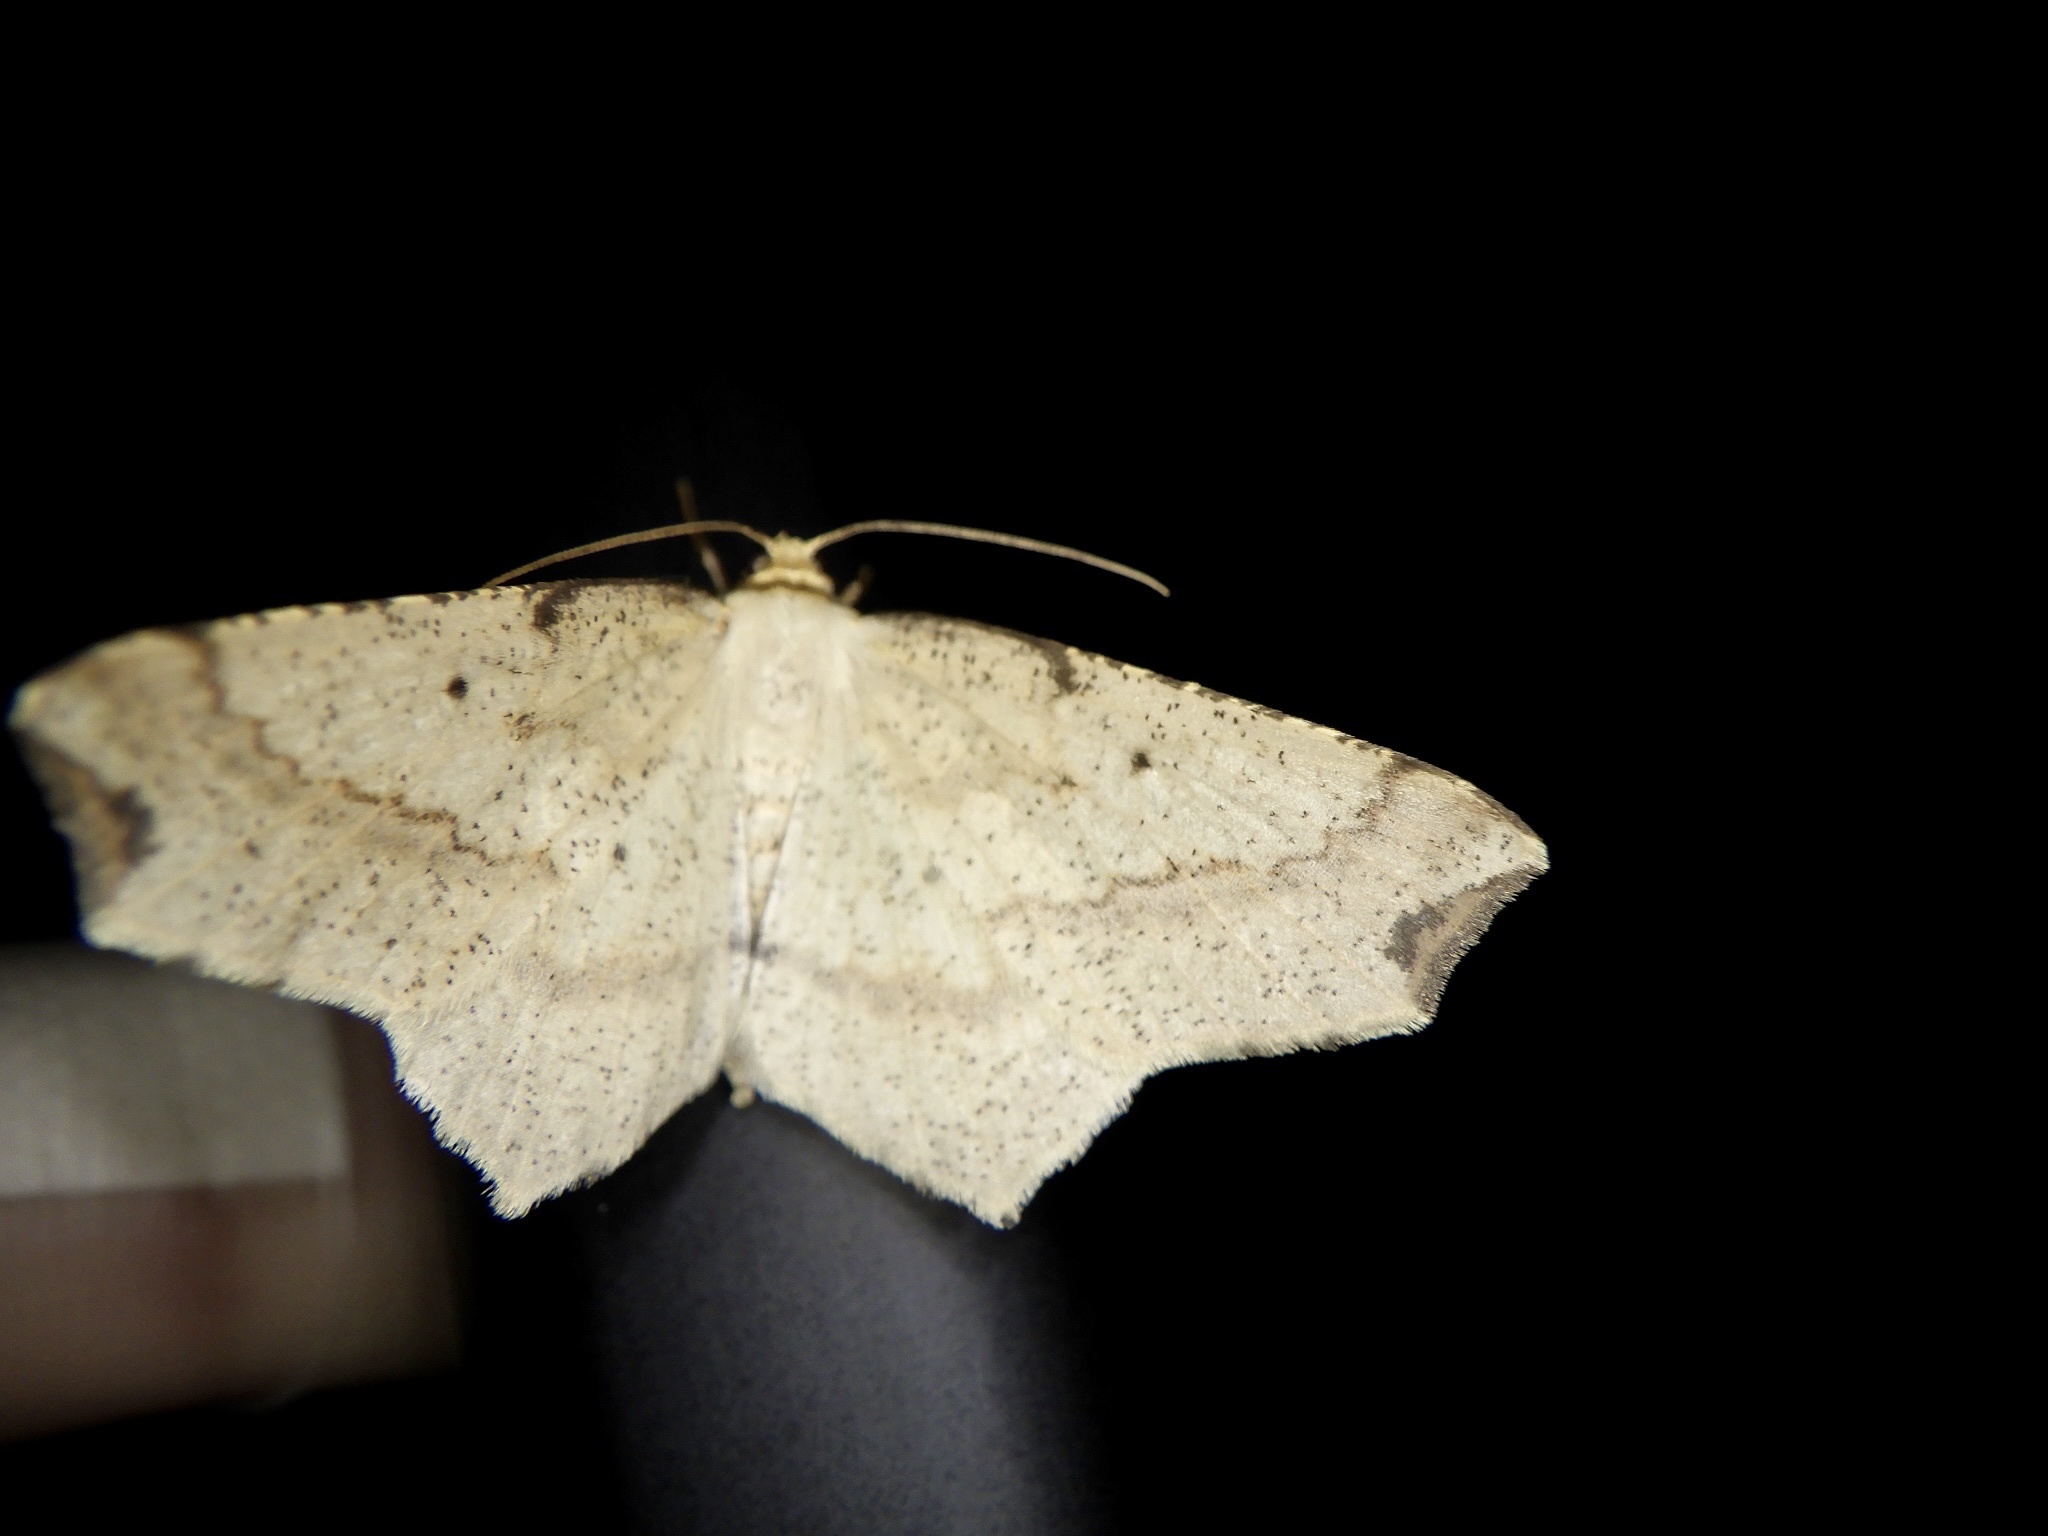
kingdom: Animalia
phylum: Arthropoda
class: Insecta
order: Lepidoptera
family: Geometridae
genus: Pareclipsis
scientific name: Pareclipsis gracilis
